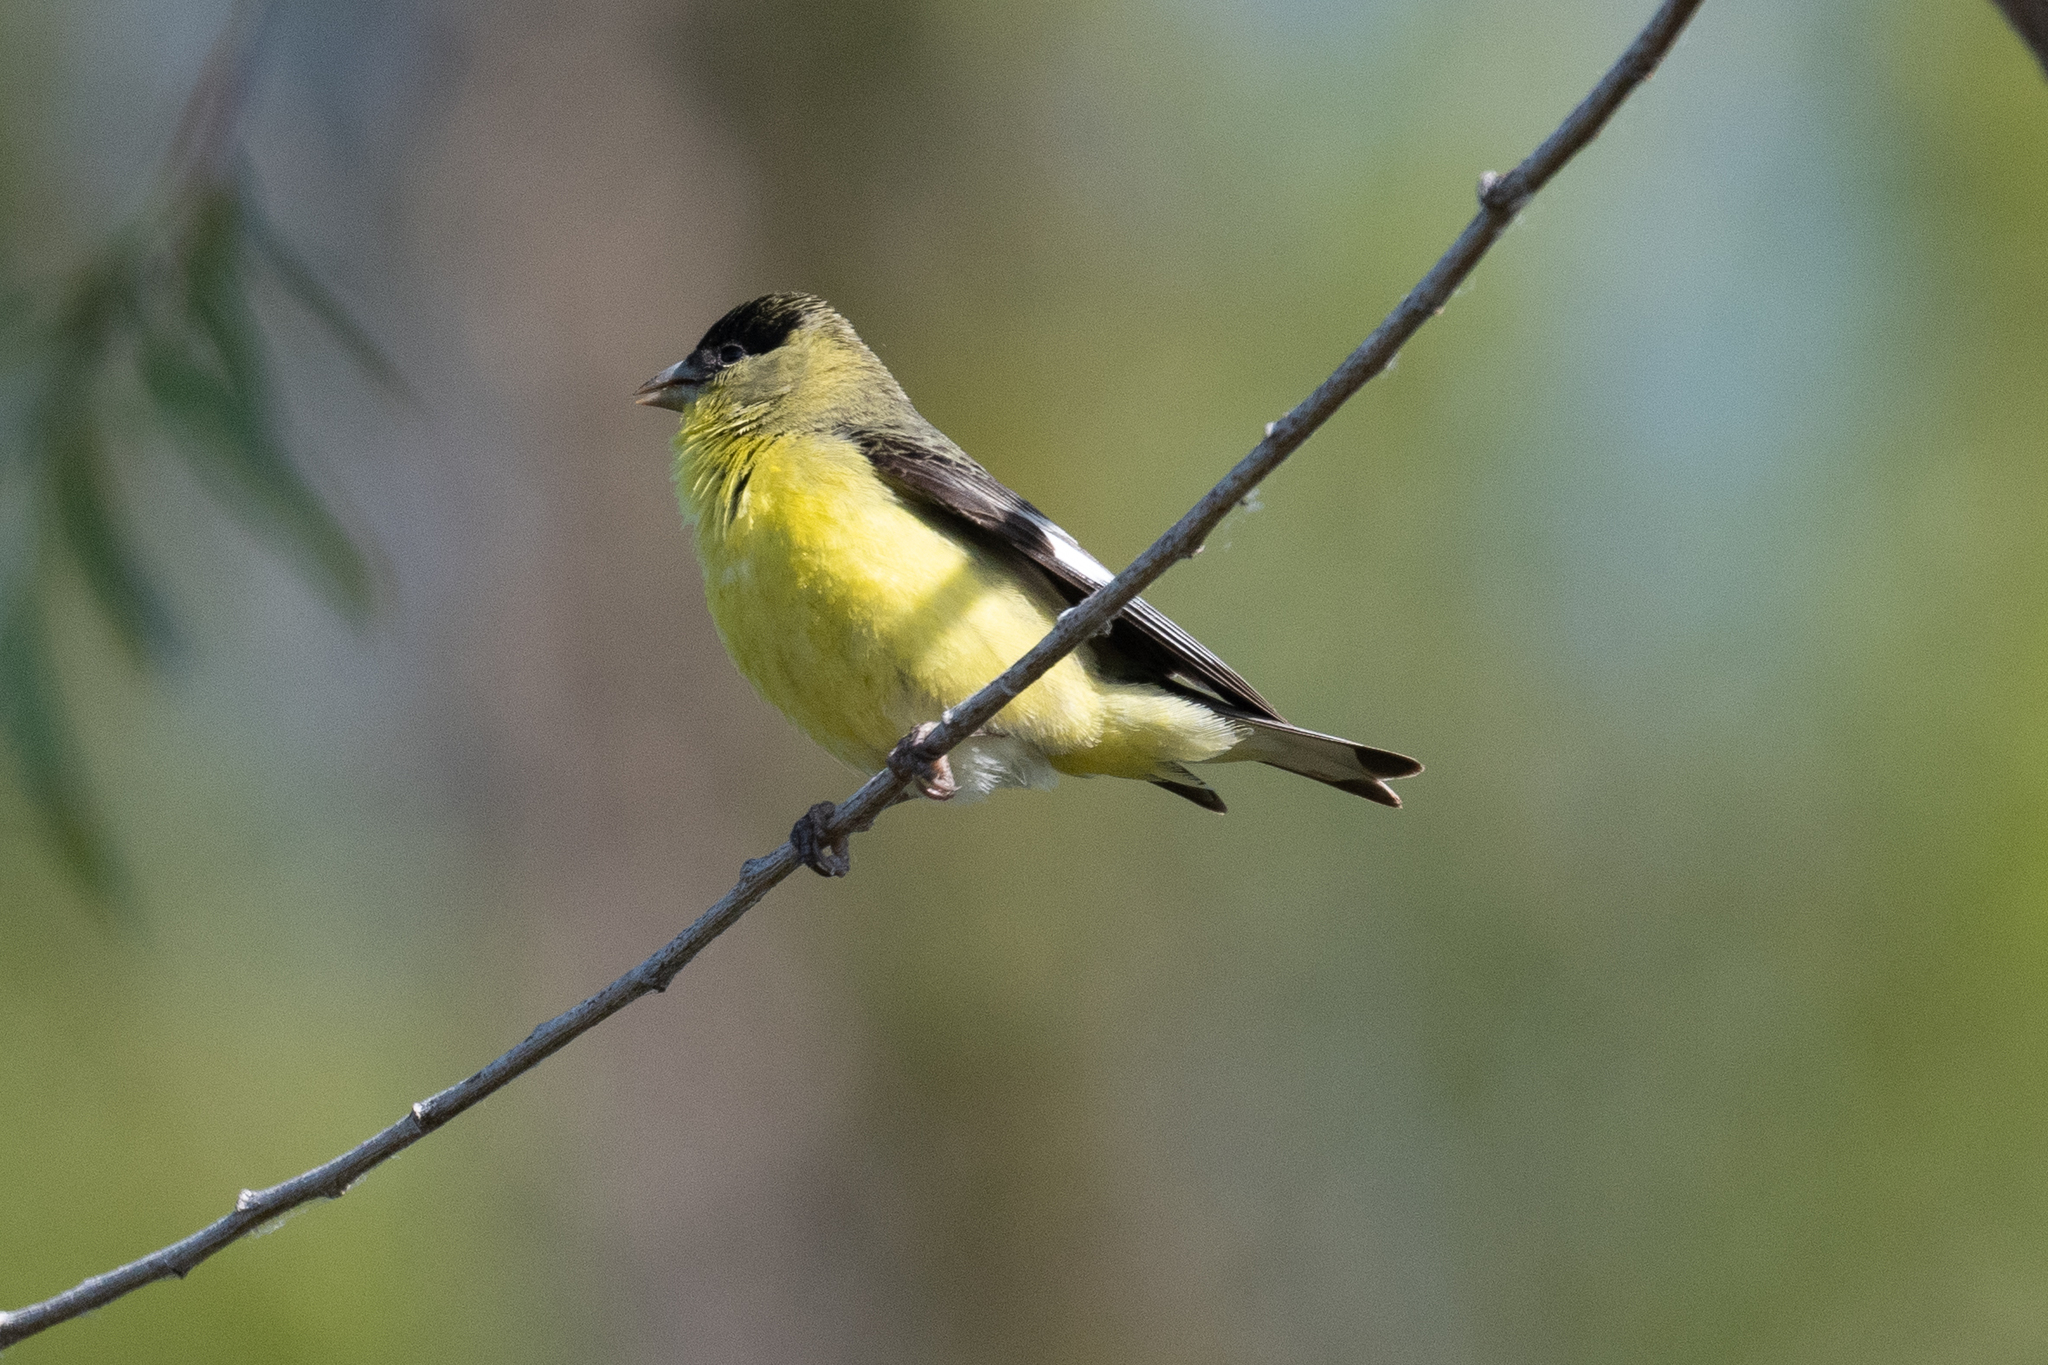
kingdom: Animalia
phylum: Chordata
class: Aves
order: Passeriformes
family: Fringillidae
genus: Spinus
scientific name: Spinus psaltria
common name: Lesser goldfinch
